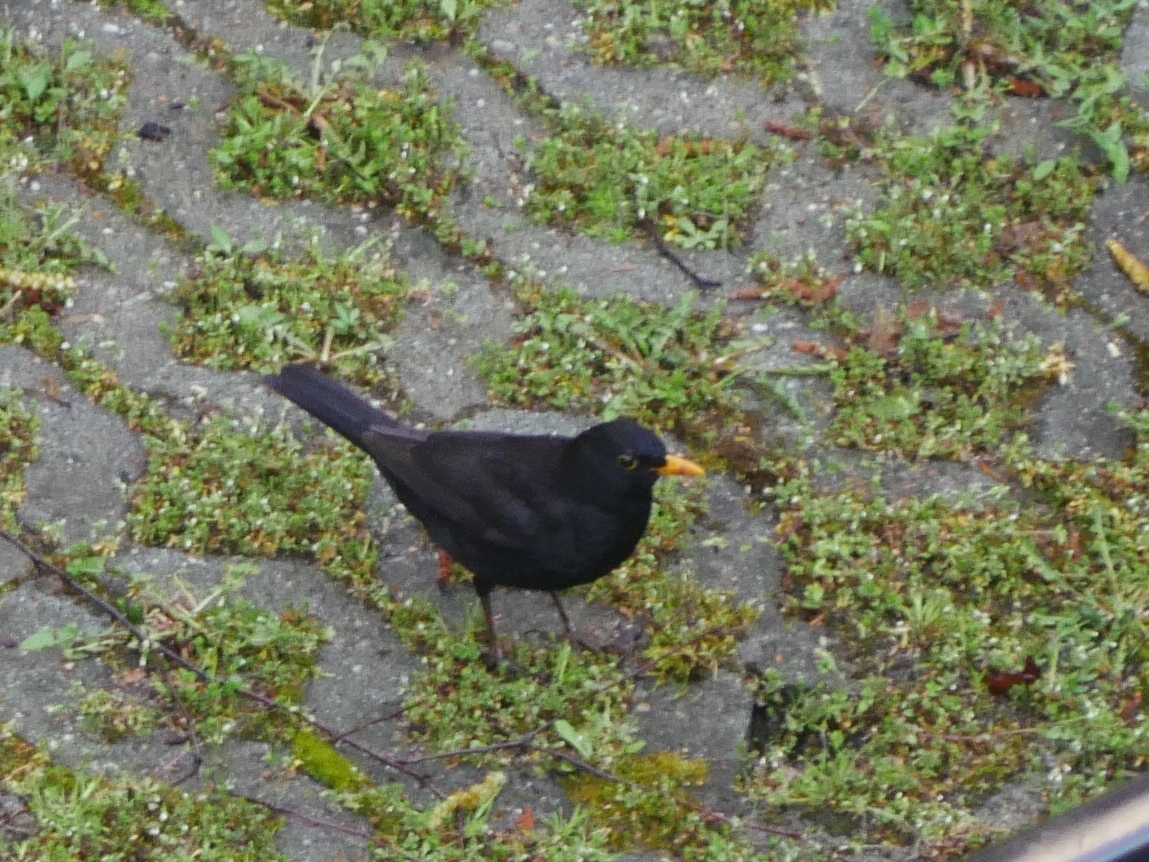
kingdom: Animalia
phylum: Chordata
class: Aves
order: Passeriformes
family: Turdidae
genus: Turdus
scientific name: Turdus merula
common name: Common blackbird
